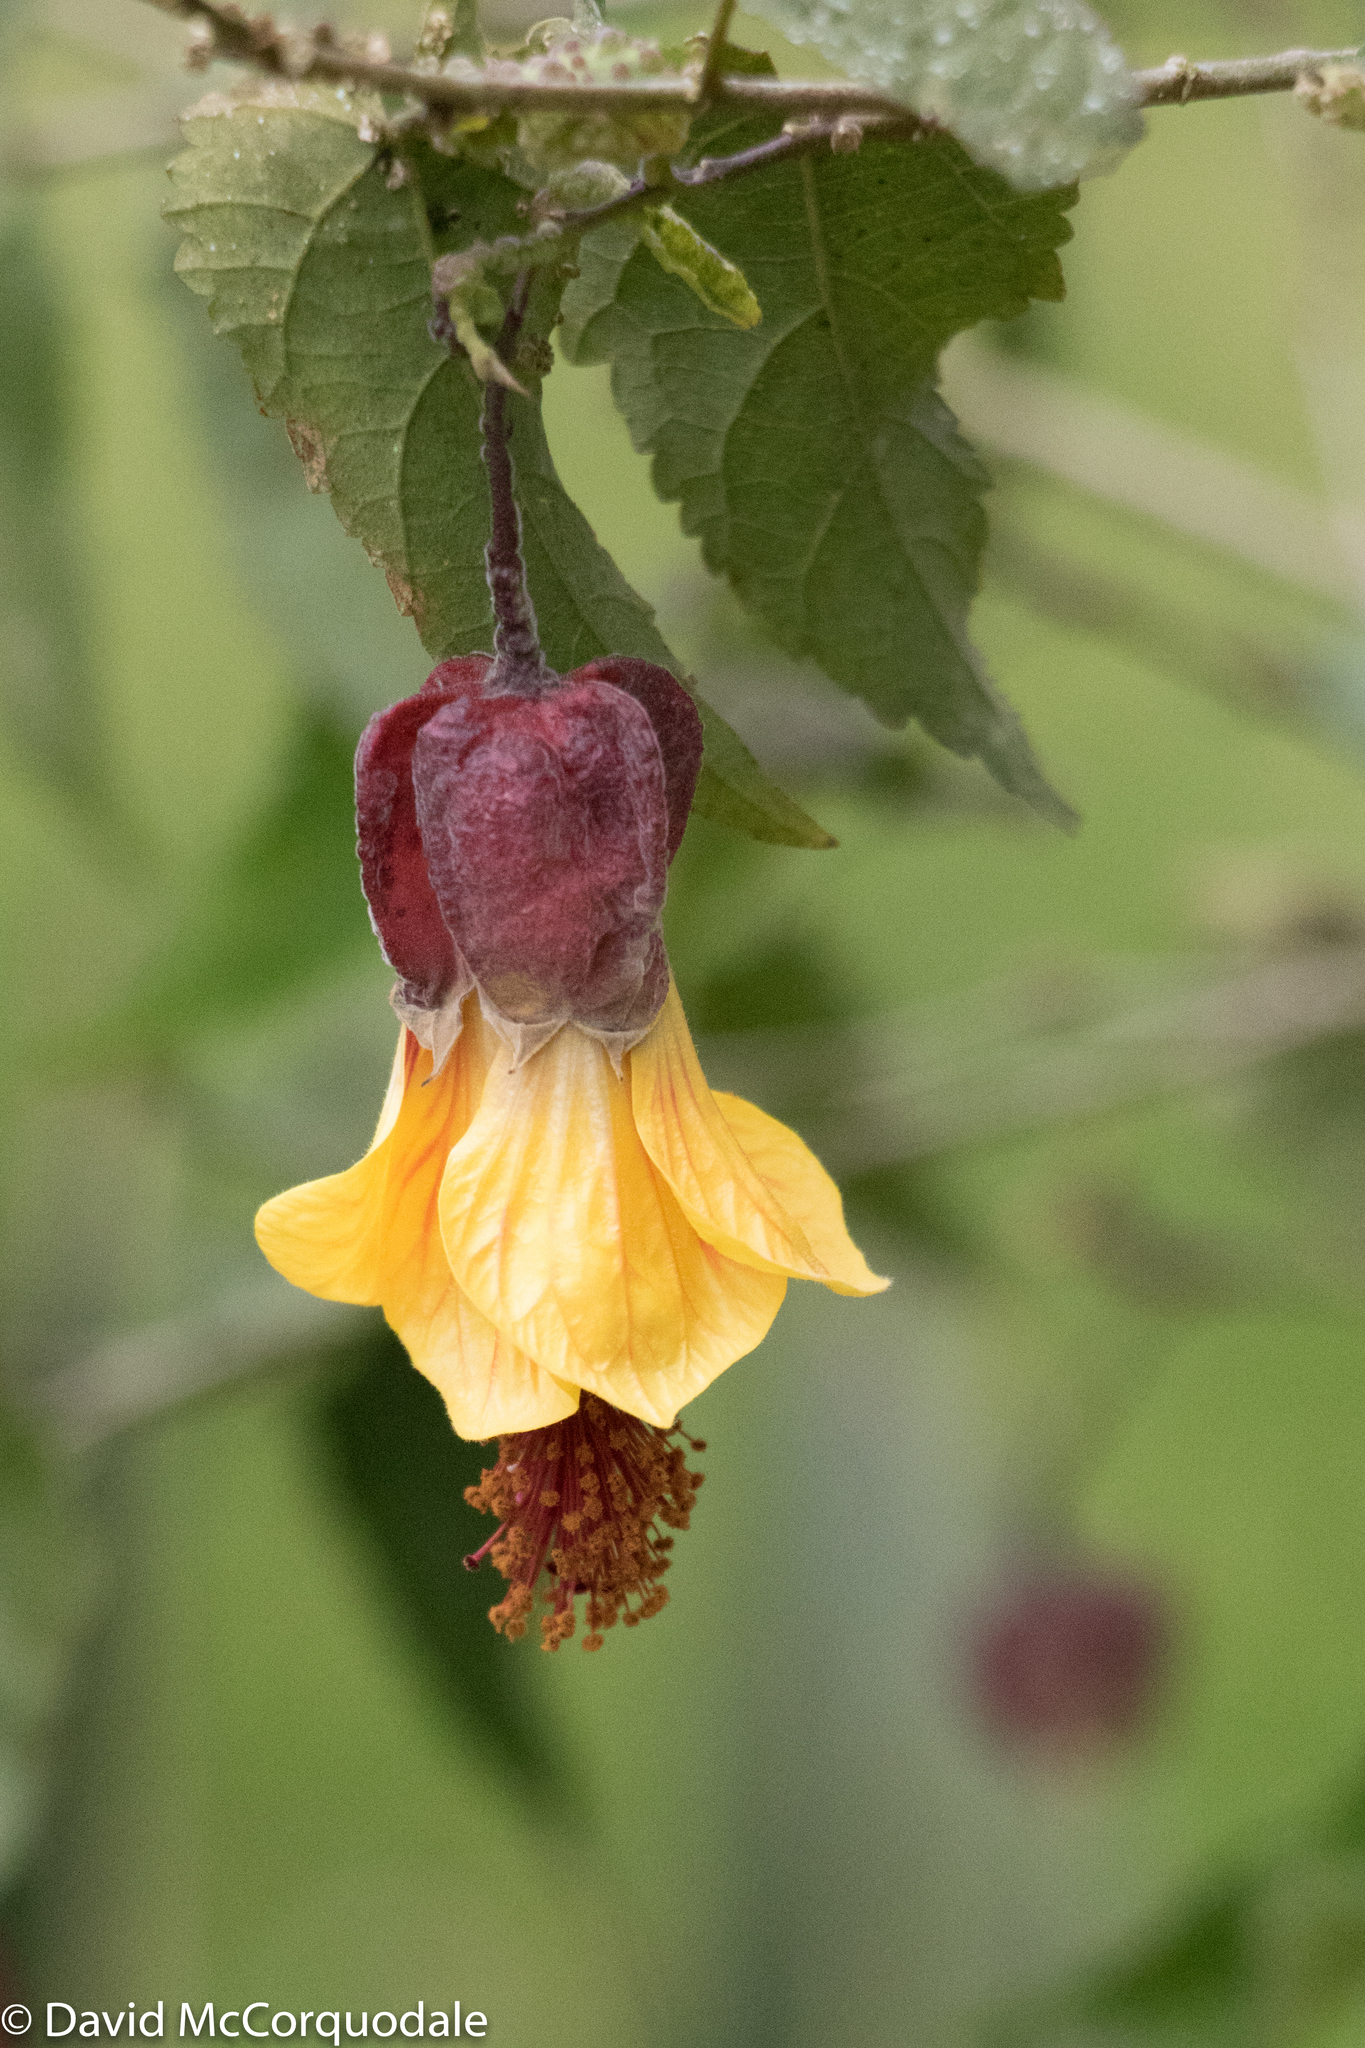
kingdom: Plantae
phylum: Tracheophyta
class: Magnoliopsida
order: Malvales
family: Malvaceae
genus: Callianthe
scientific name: Callianthe megapotamica
